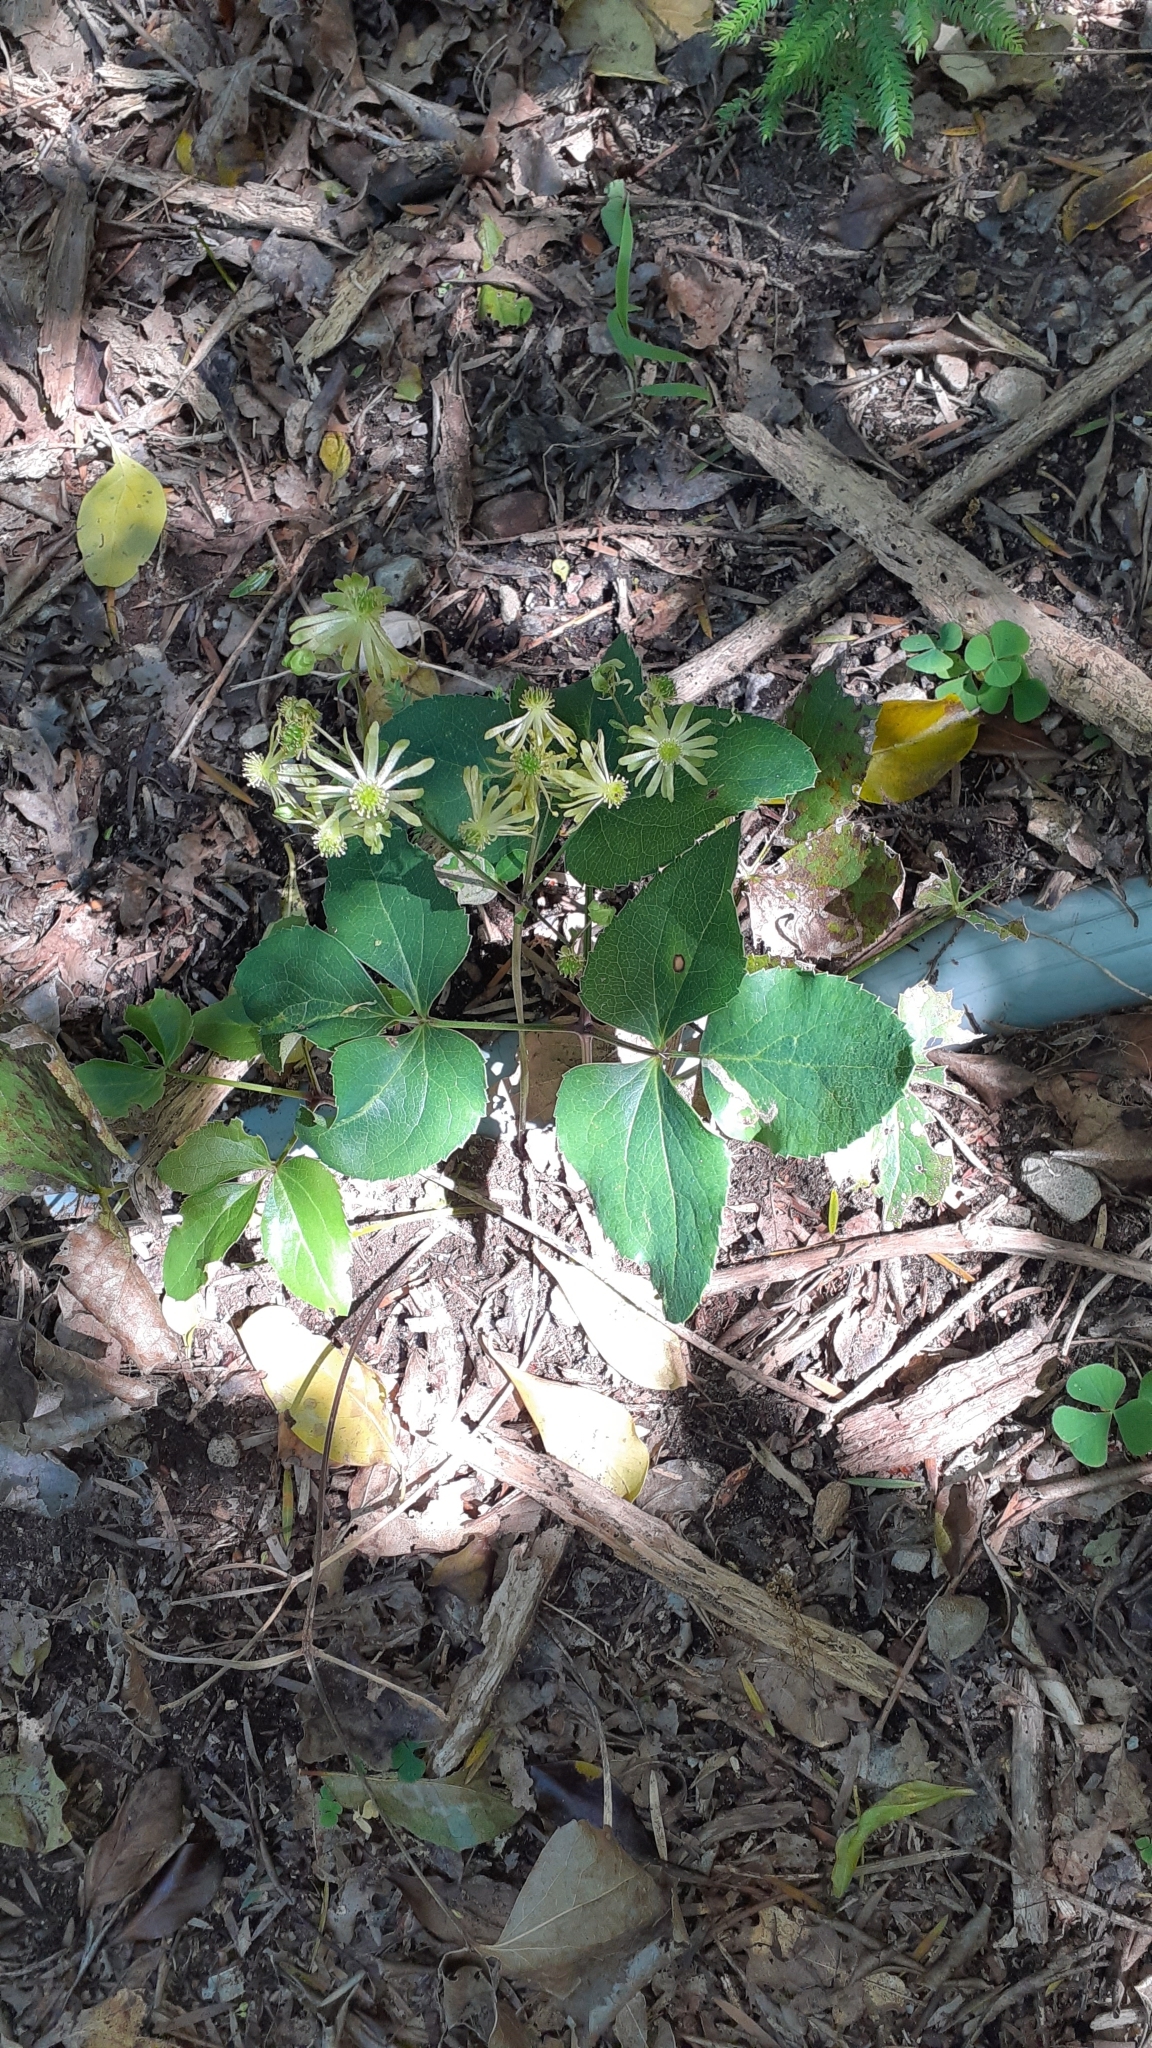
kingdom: Plantae
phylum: Tracheophyta
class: Magnoliopsida
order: Ranunculales
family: Ranunculaceae
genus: Knowltonia
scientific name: Knowltonia vesicatoria
